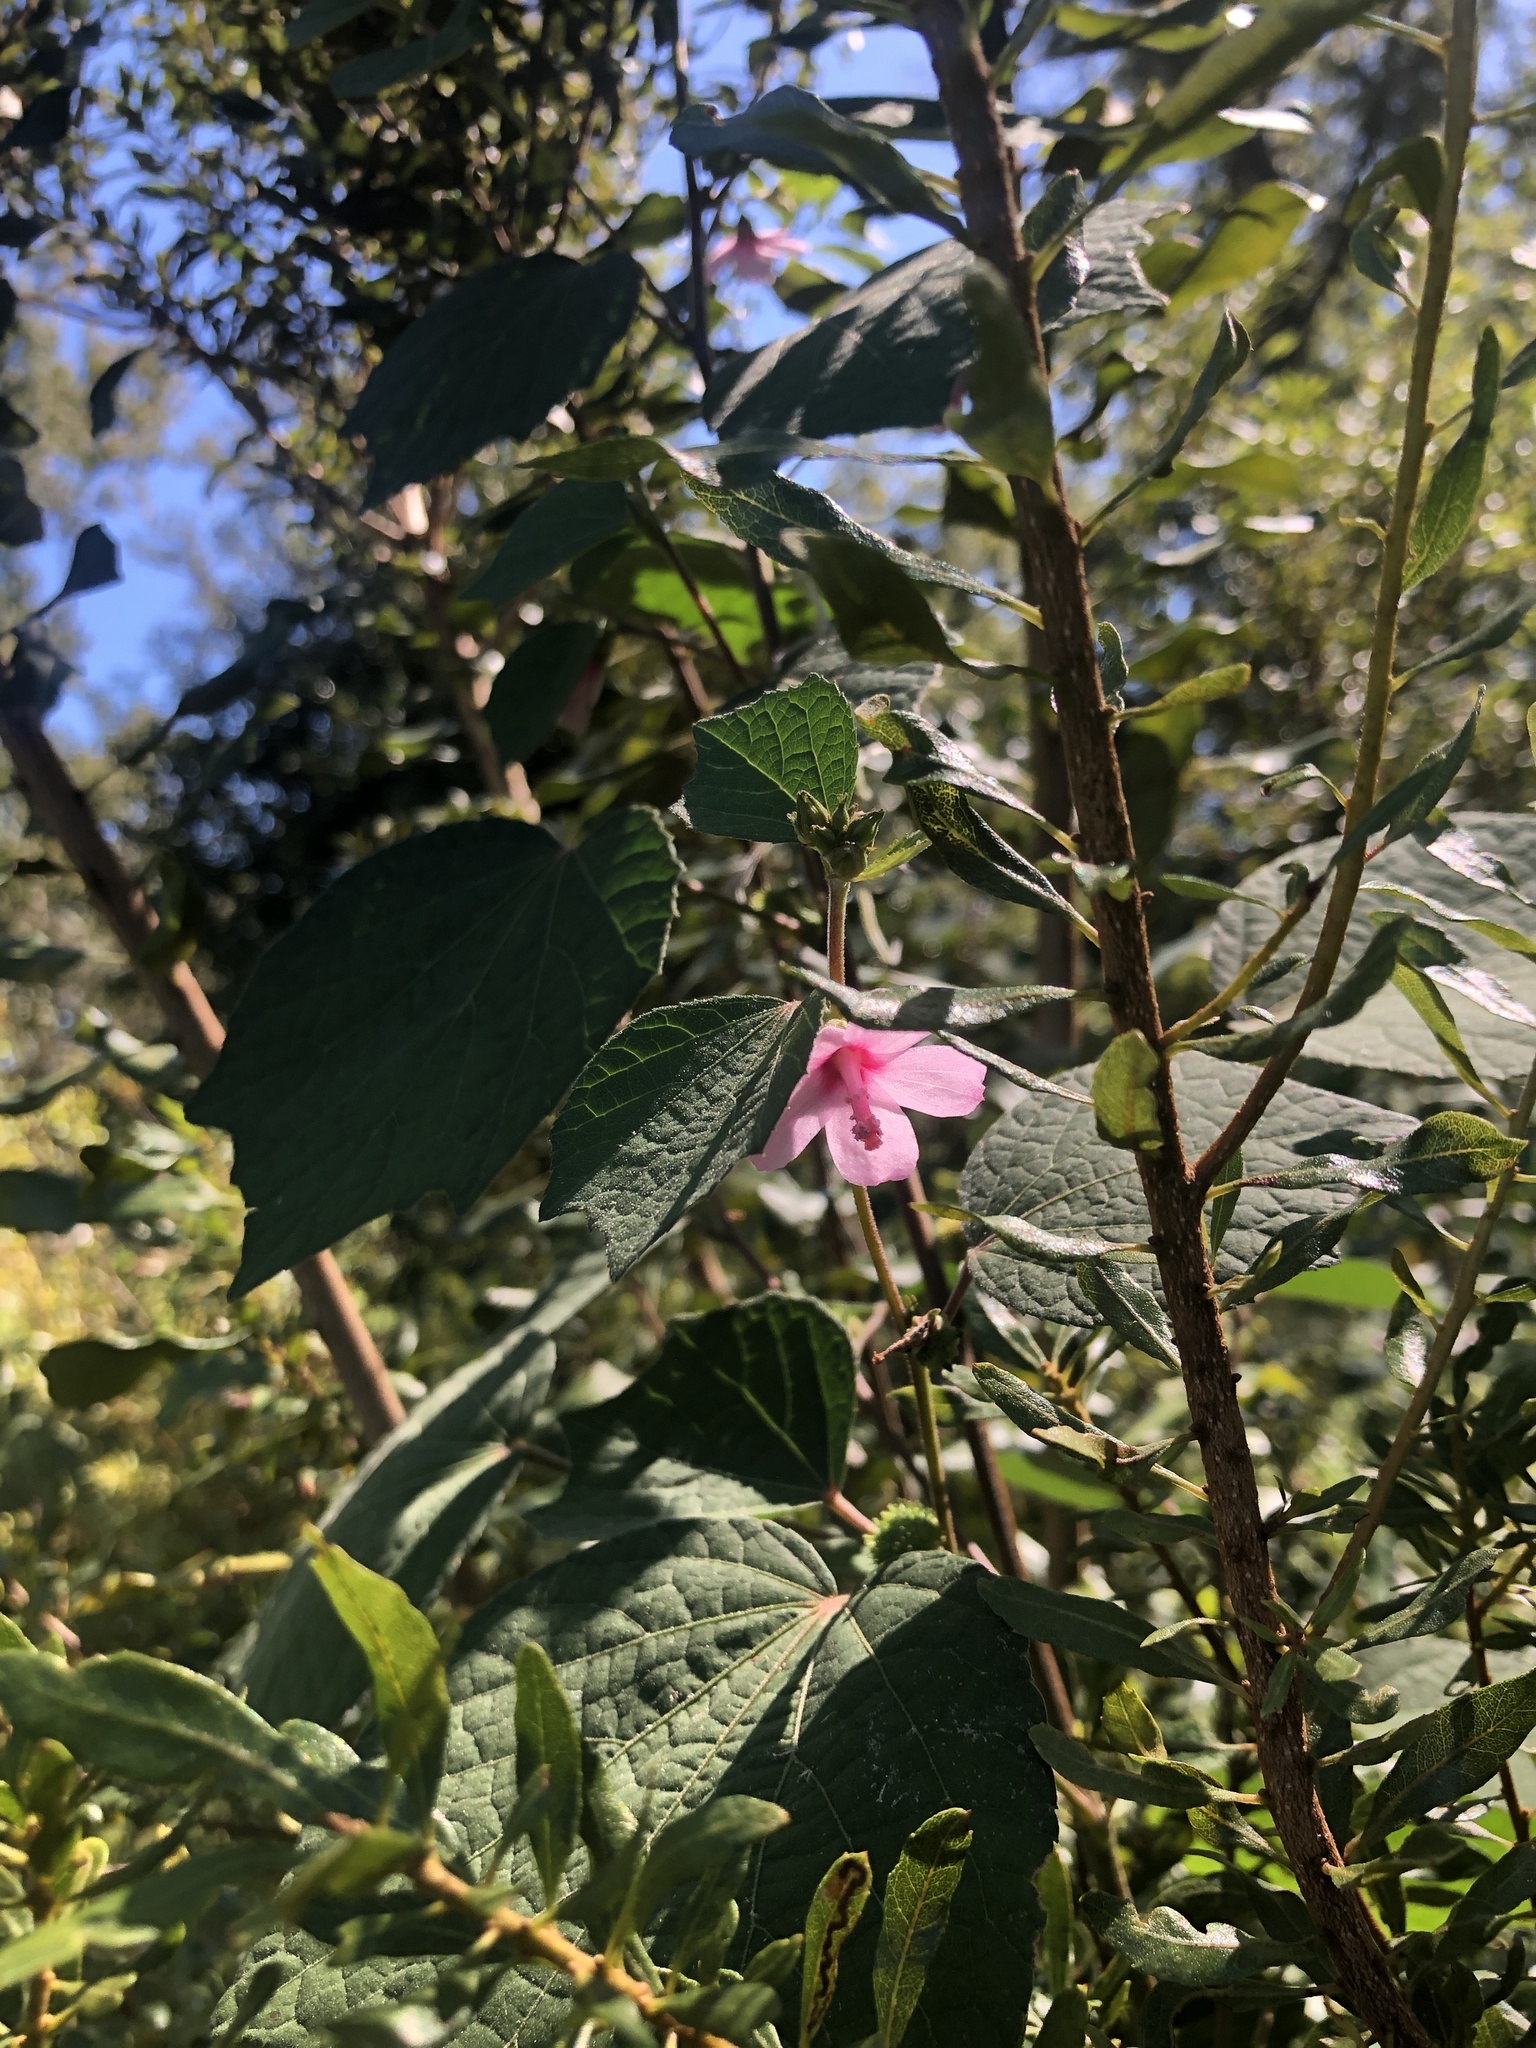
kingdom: Plantae
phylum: Tracheophyta
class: Magnoliopsida
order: Malvales
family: Malvaceae
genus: Urena
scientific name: Urena lobata
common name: Caesarweed
